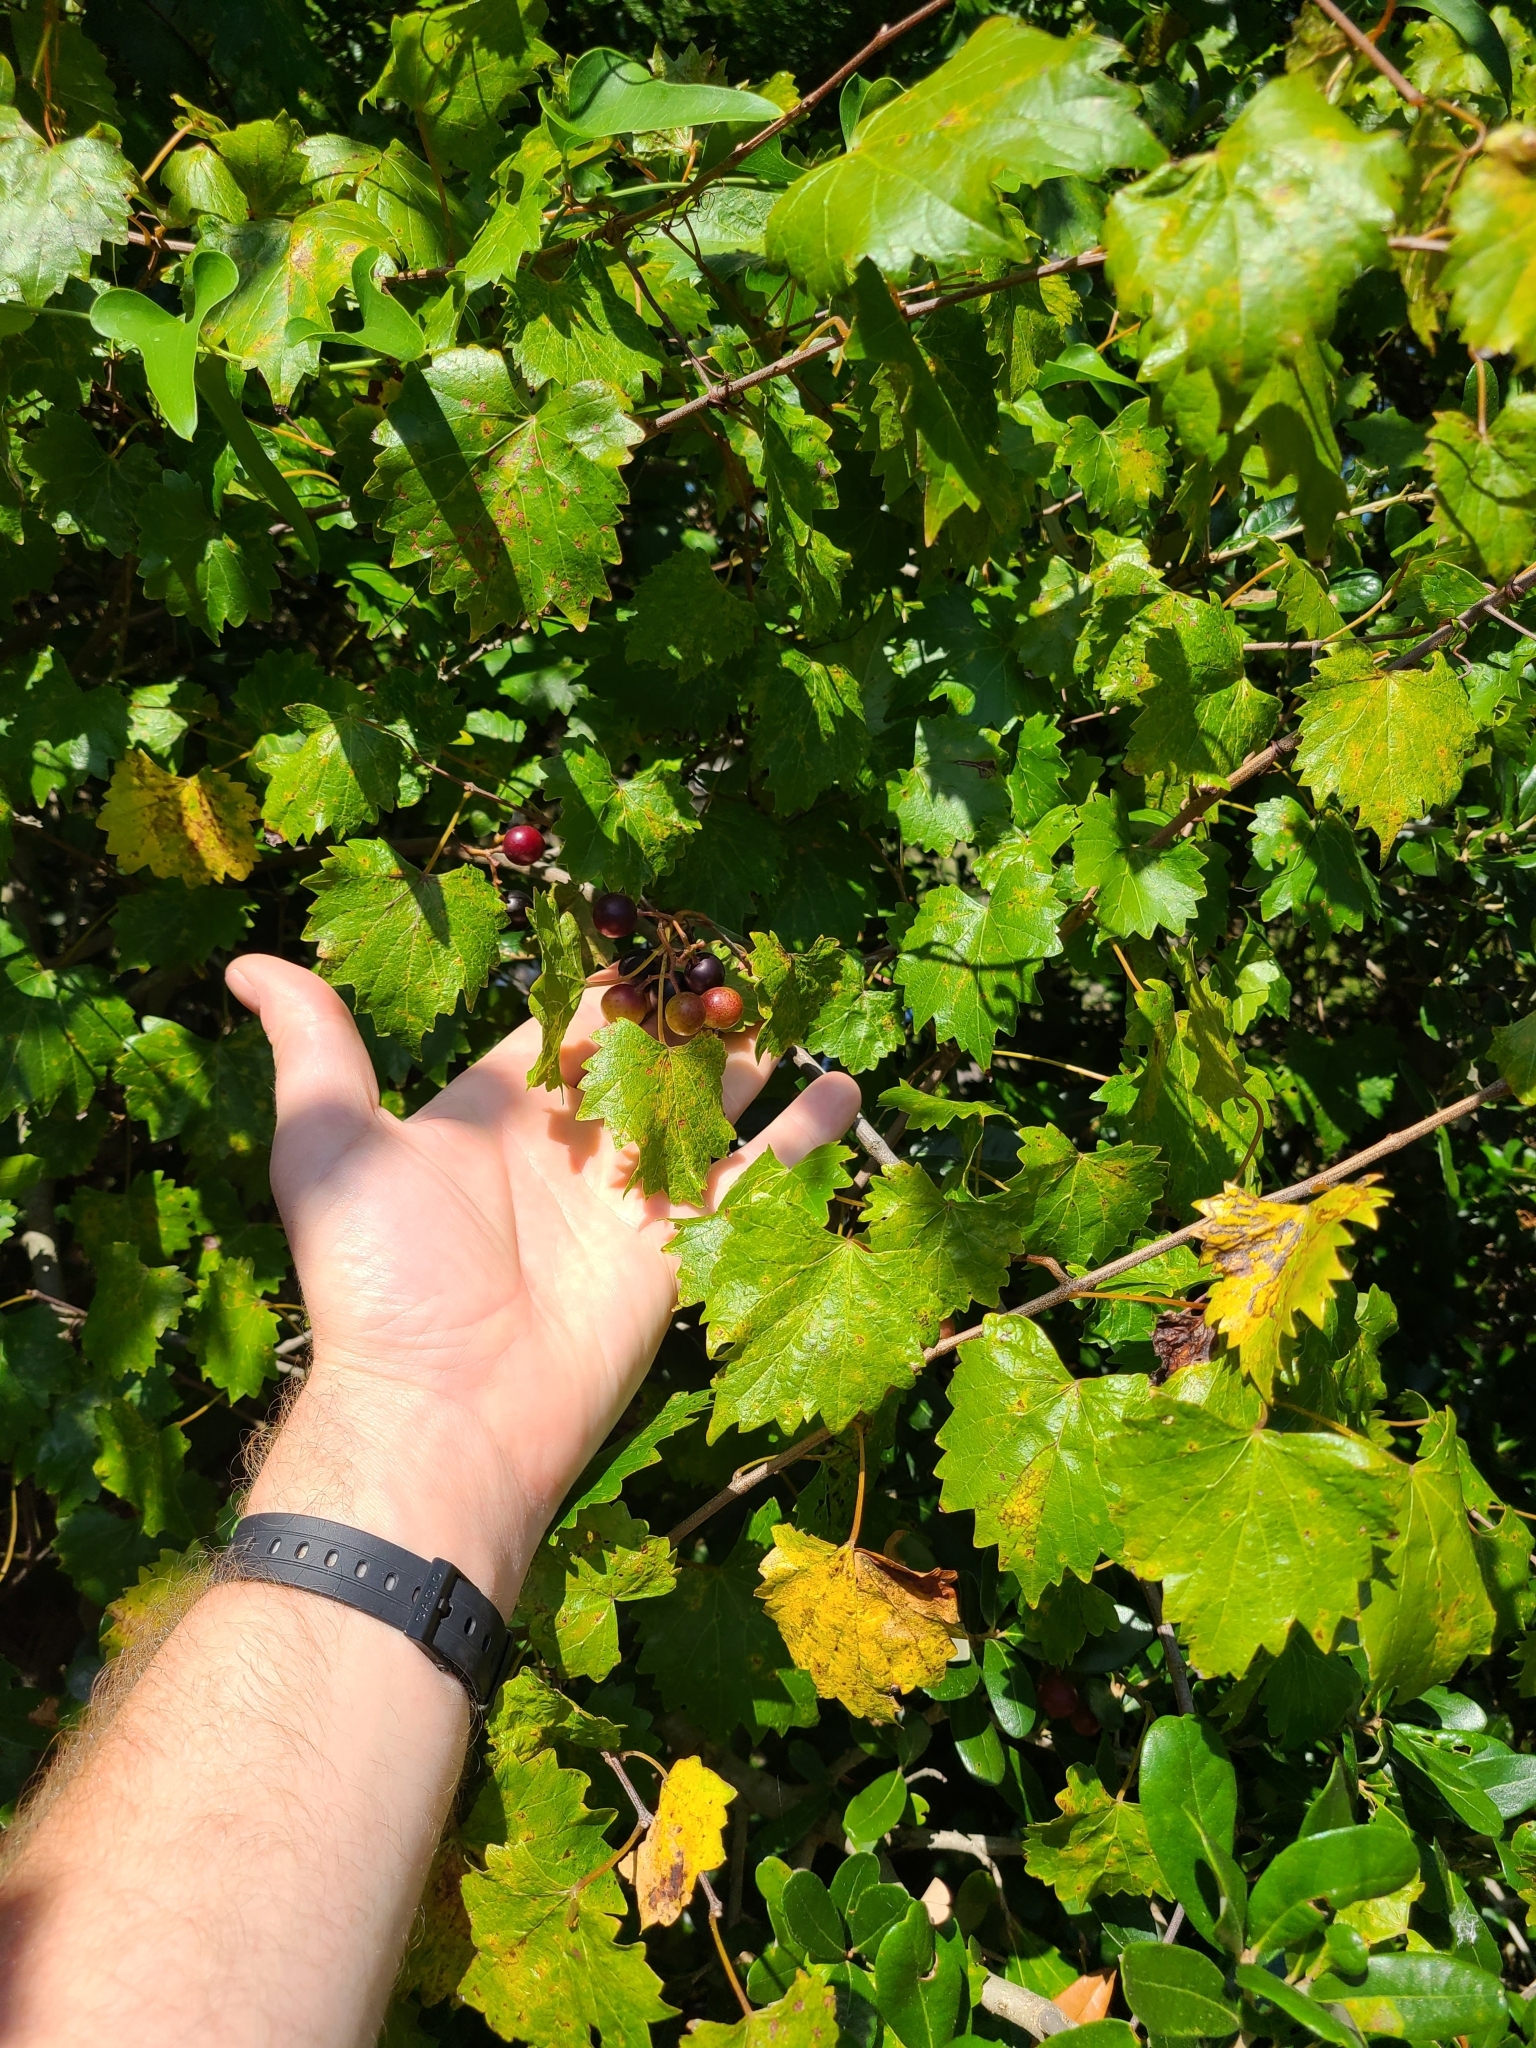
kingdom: Plantae
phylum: Tracheophyta
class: Magnoliopsida
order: Vitales
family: Vitaceae
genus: Vitis
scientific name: Vitis rotundifolia
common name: Muscadine grape
